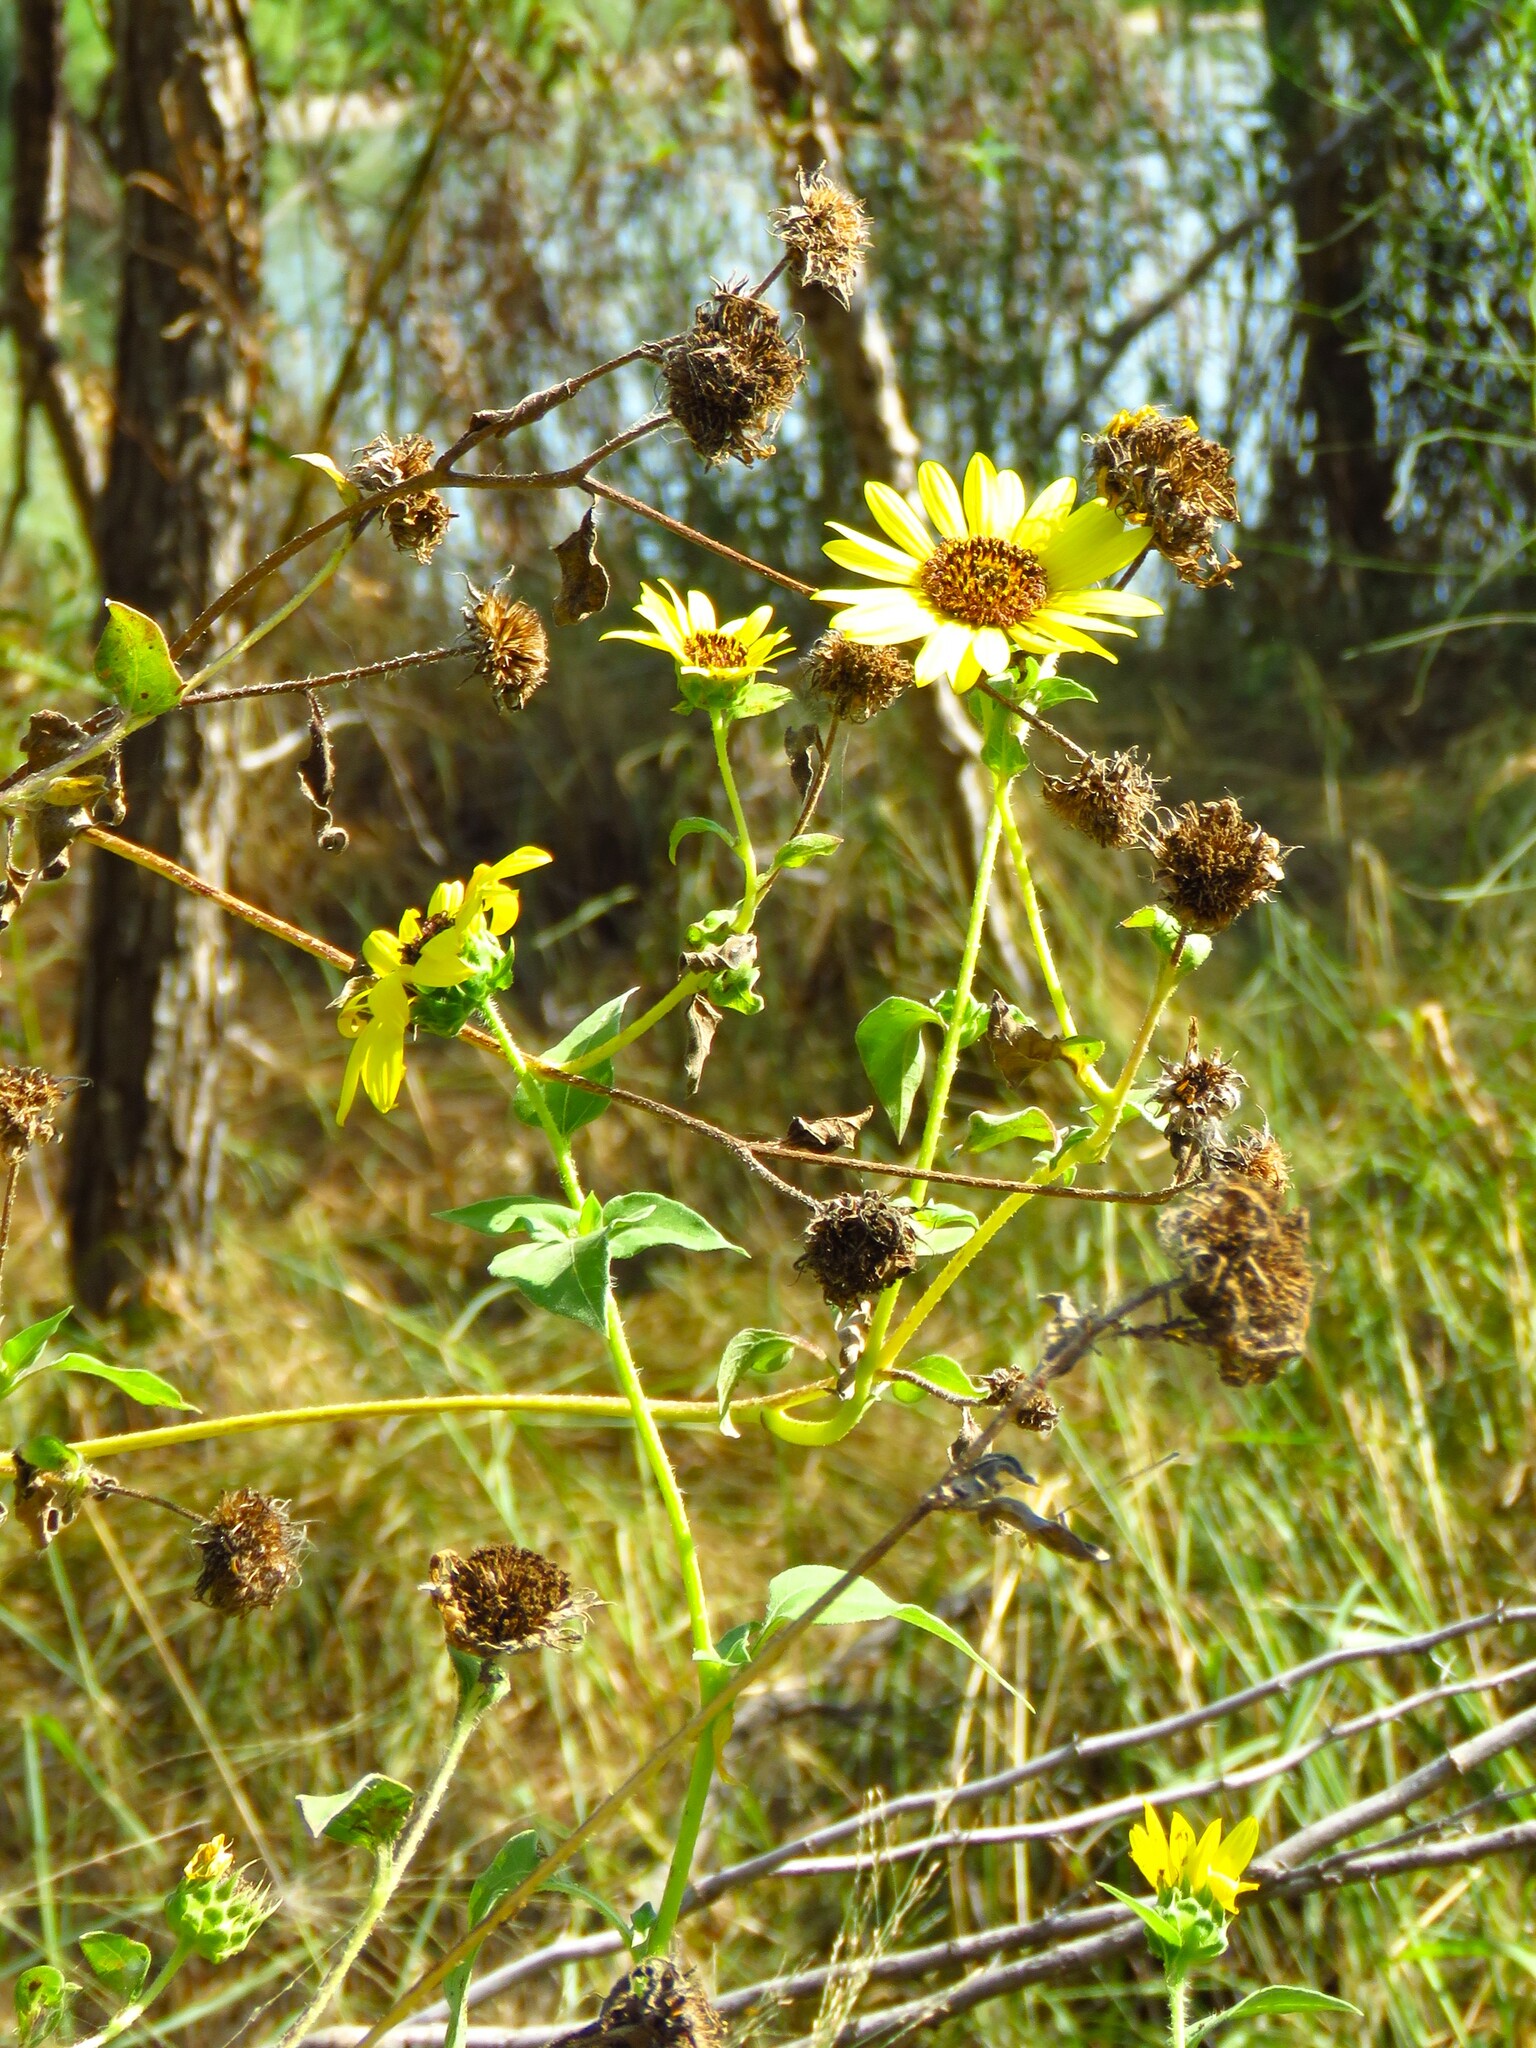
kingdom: Plantae
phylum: Tracheophyta
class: Magnoliopsida
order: Asterales
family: Asteraceae
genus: Helianthus
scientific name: Helianthus annuus
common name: Sunflower
